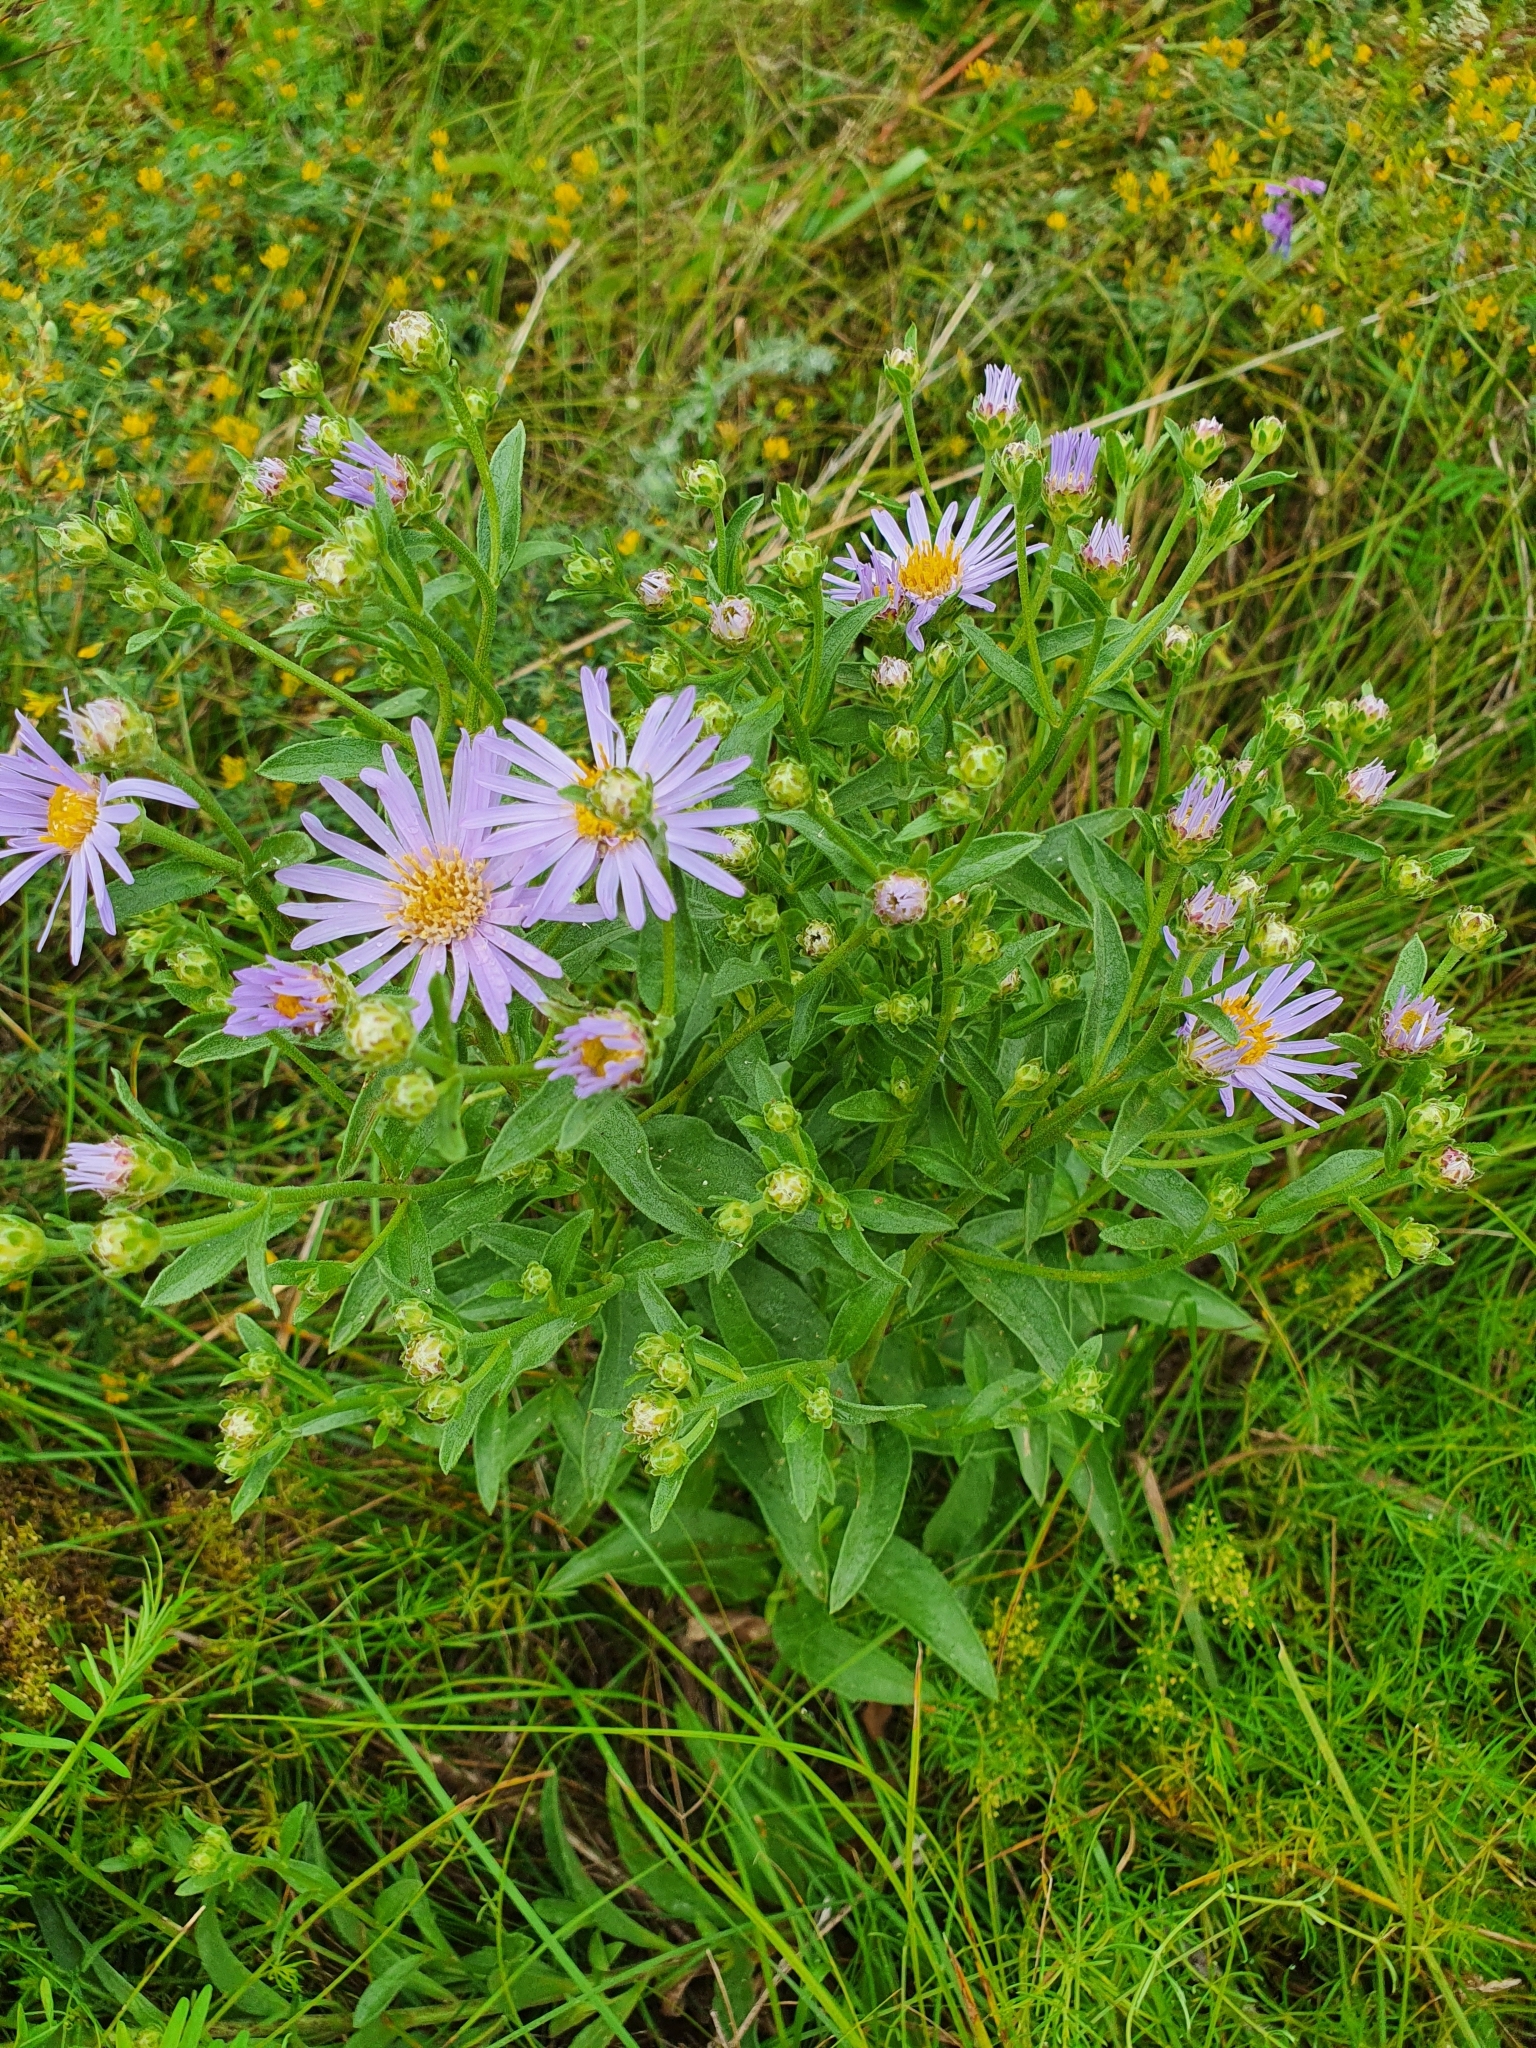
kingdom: Plantae
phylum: Tracheophyta
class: Magnoliopsida
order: Asterales
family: Asteraceae
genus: Aster
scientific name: Aster amellus
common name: European michaelmas daisy
